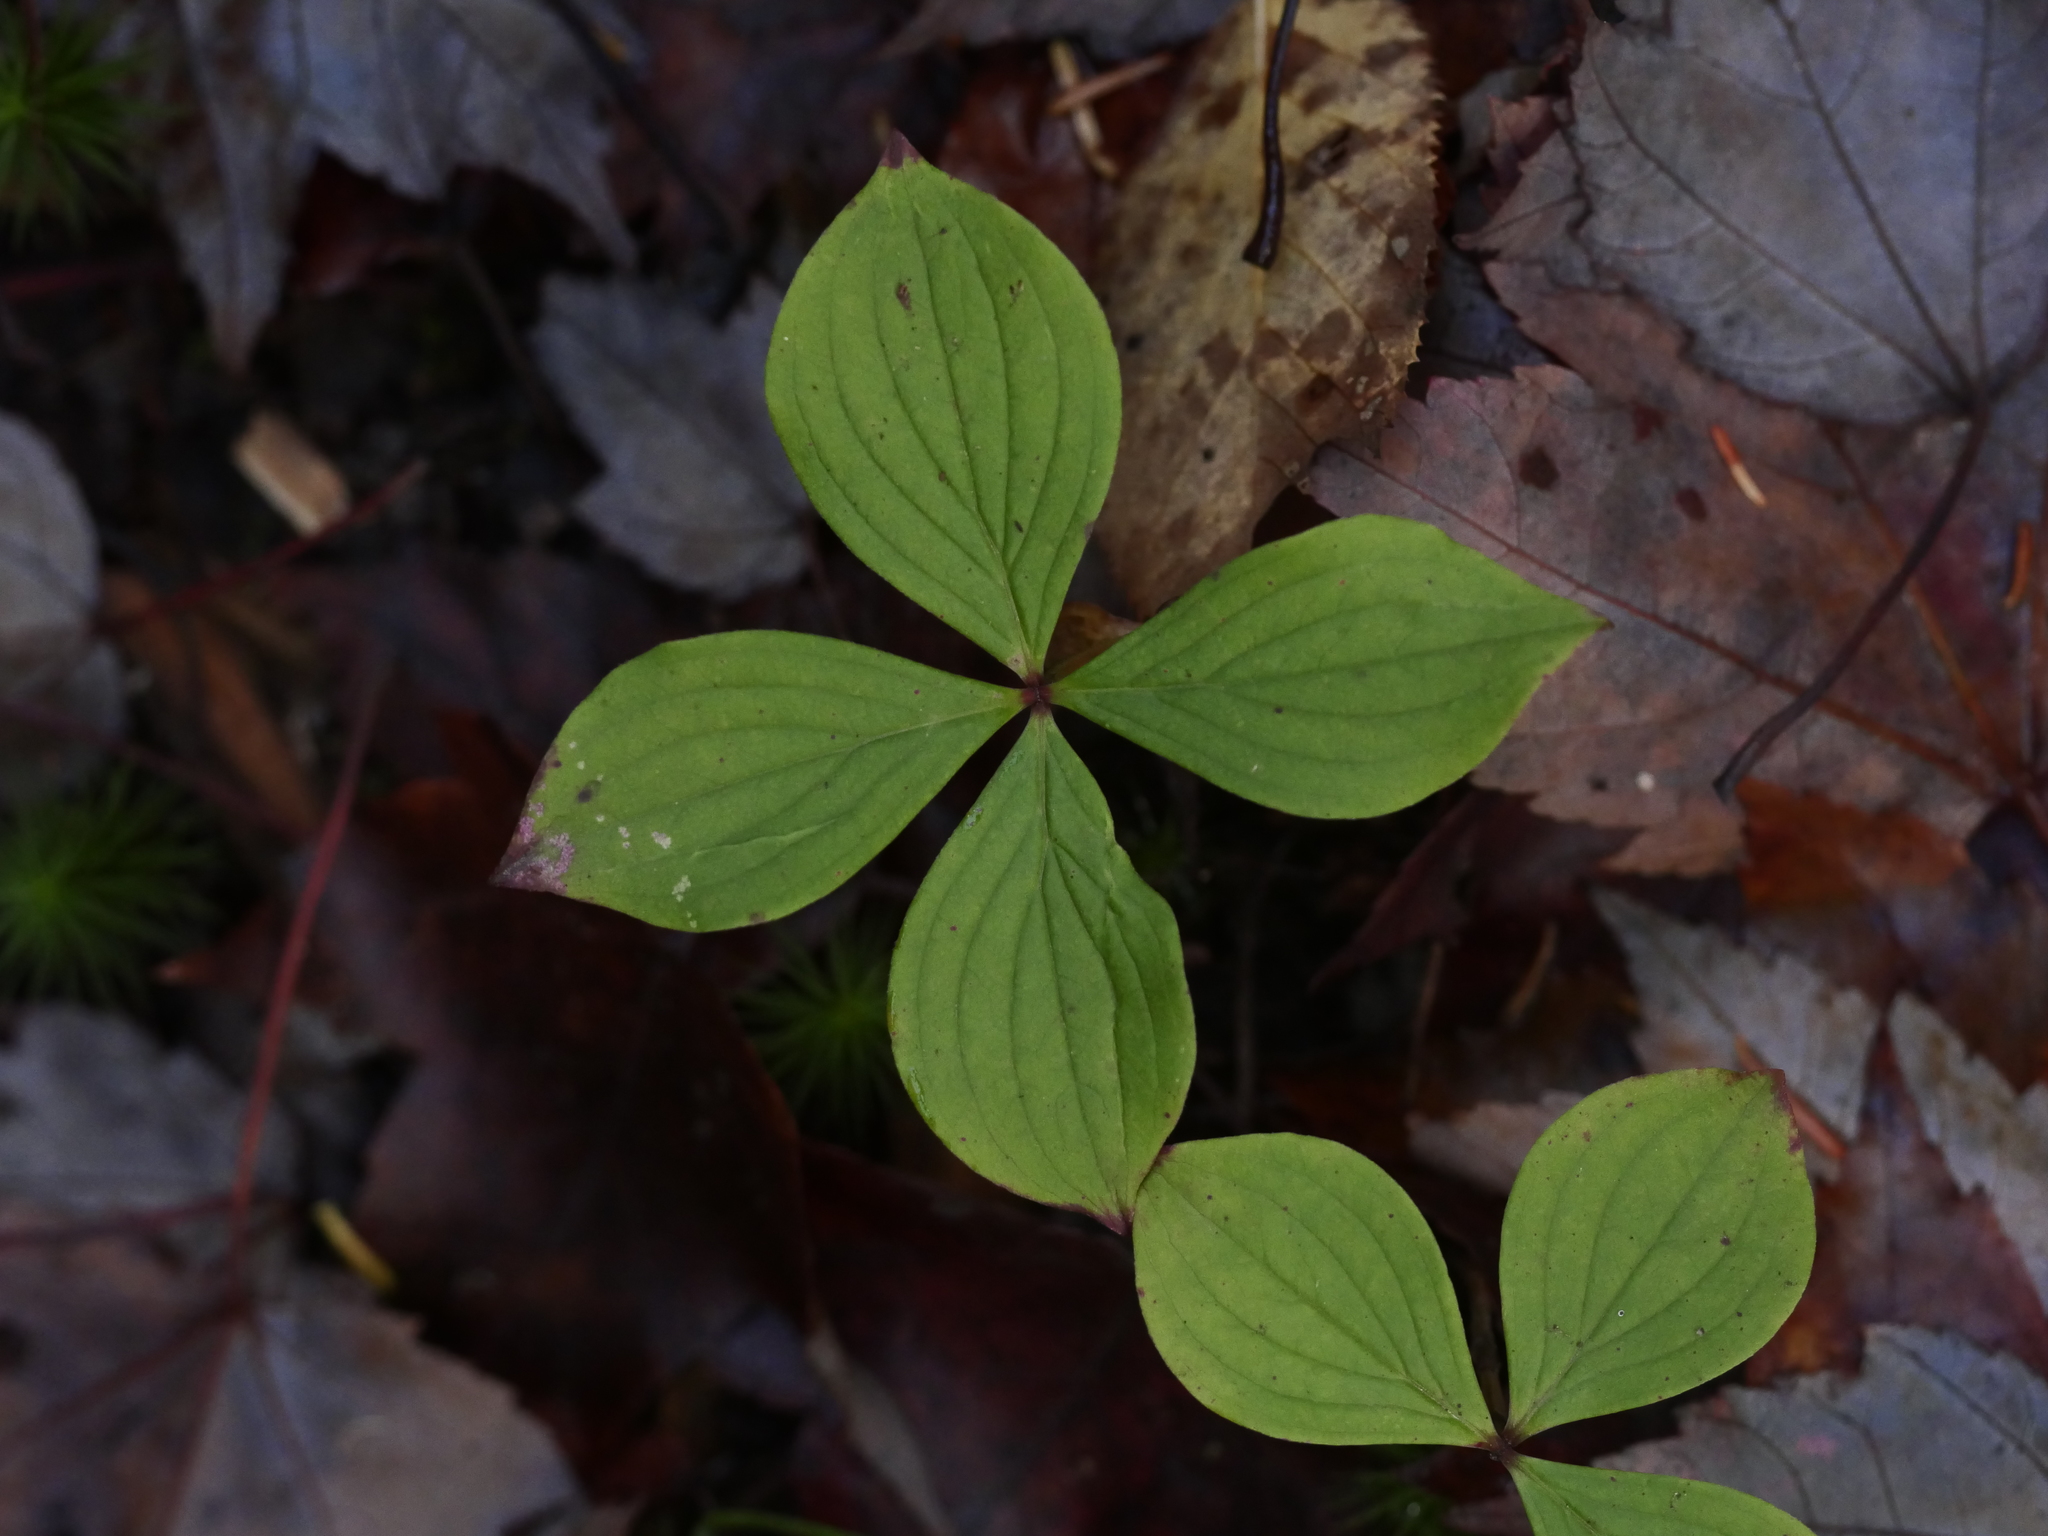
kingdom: Plantae
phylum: Tracheophyta
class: Magnoliopsida
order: Cornales
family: Cornaceae
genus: Cornus
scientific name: Cornus canadensis
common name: Creeping dogwood
